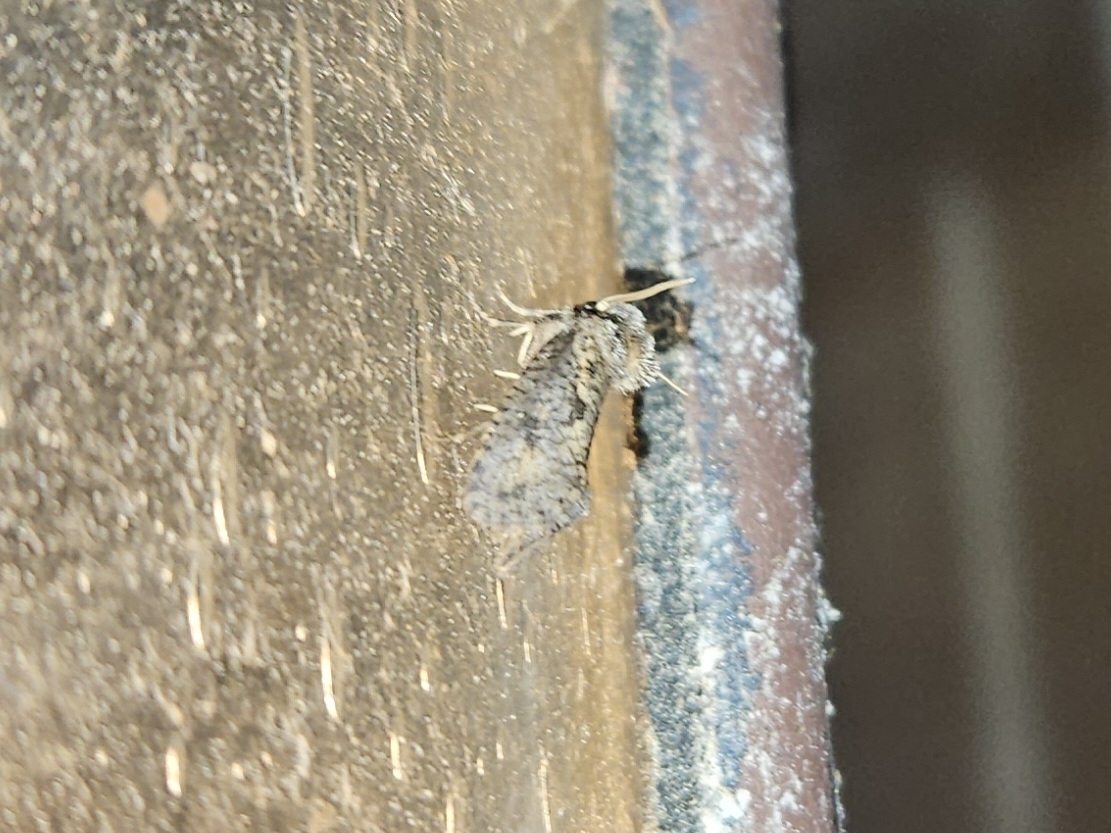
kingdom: Animalia
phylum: Arthropoda
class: Insecta
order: Lepidoptera
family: Tineidae
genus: Acrolophus
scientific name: Acrolophus popeanella
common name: Clemens' grass tubeworm moth
